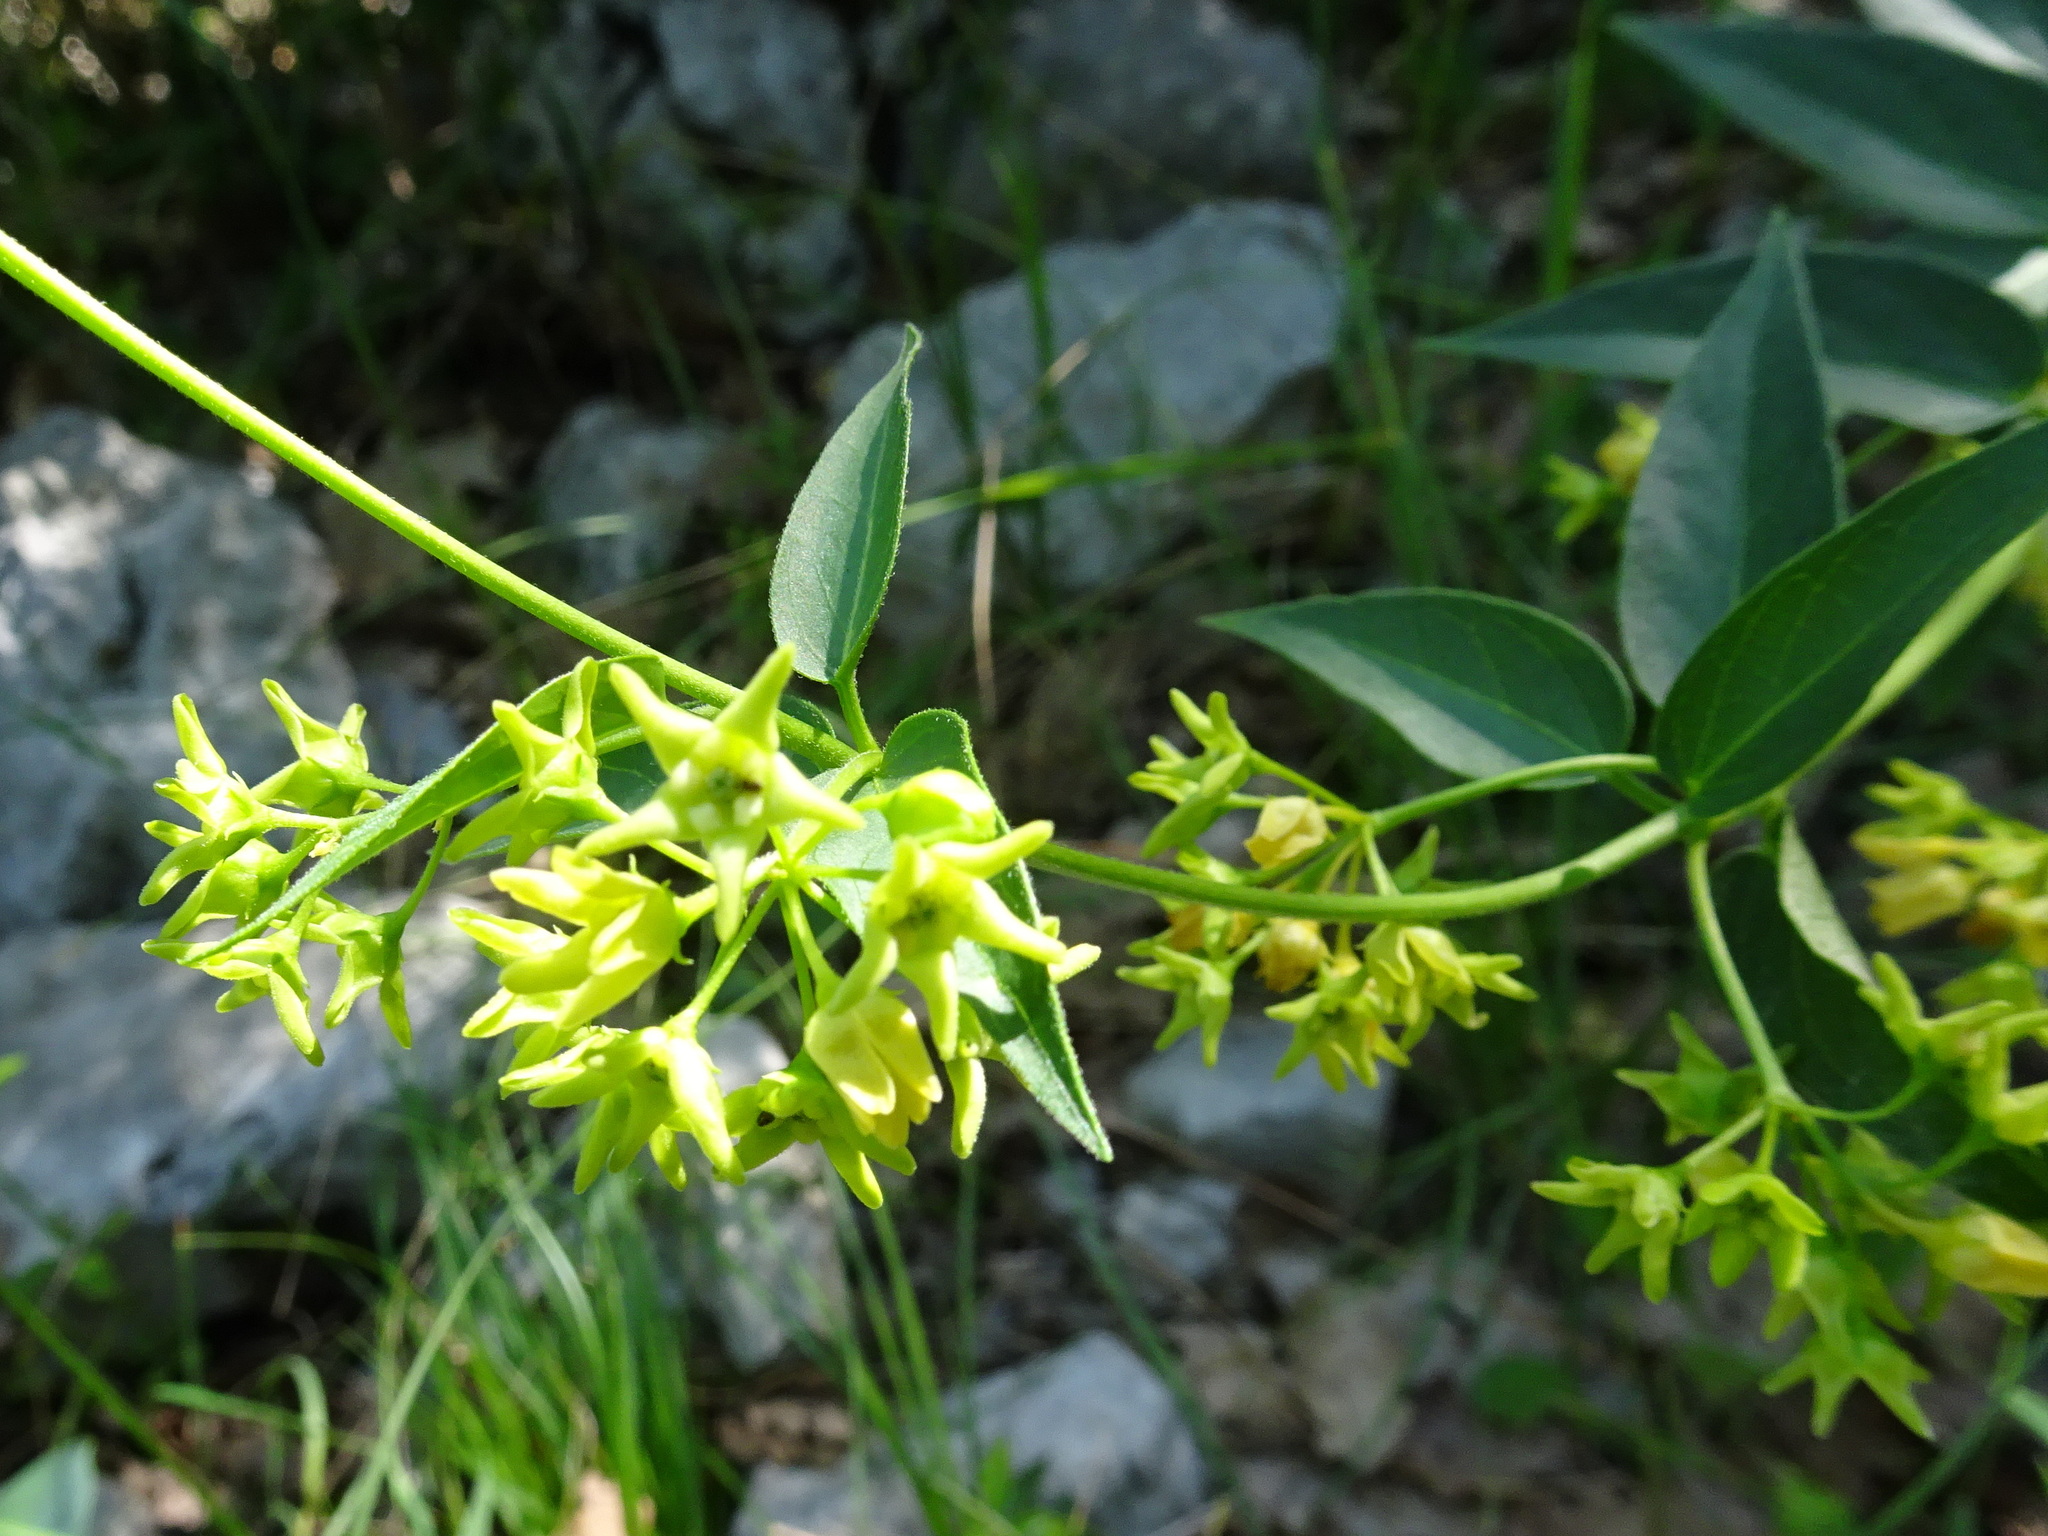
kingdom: Plantae
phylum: Tracheophyta
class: Magnoliopsida
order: Gentianales
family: Apocynaceae
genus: Vincetoxicum
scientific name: Vincetoxicum hirundinaria
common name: White swallowwort
